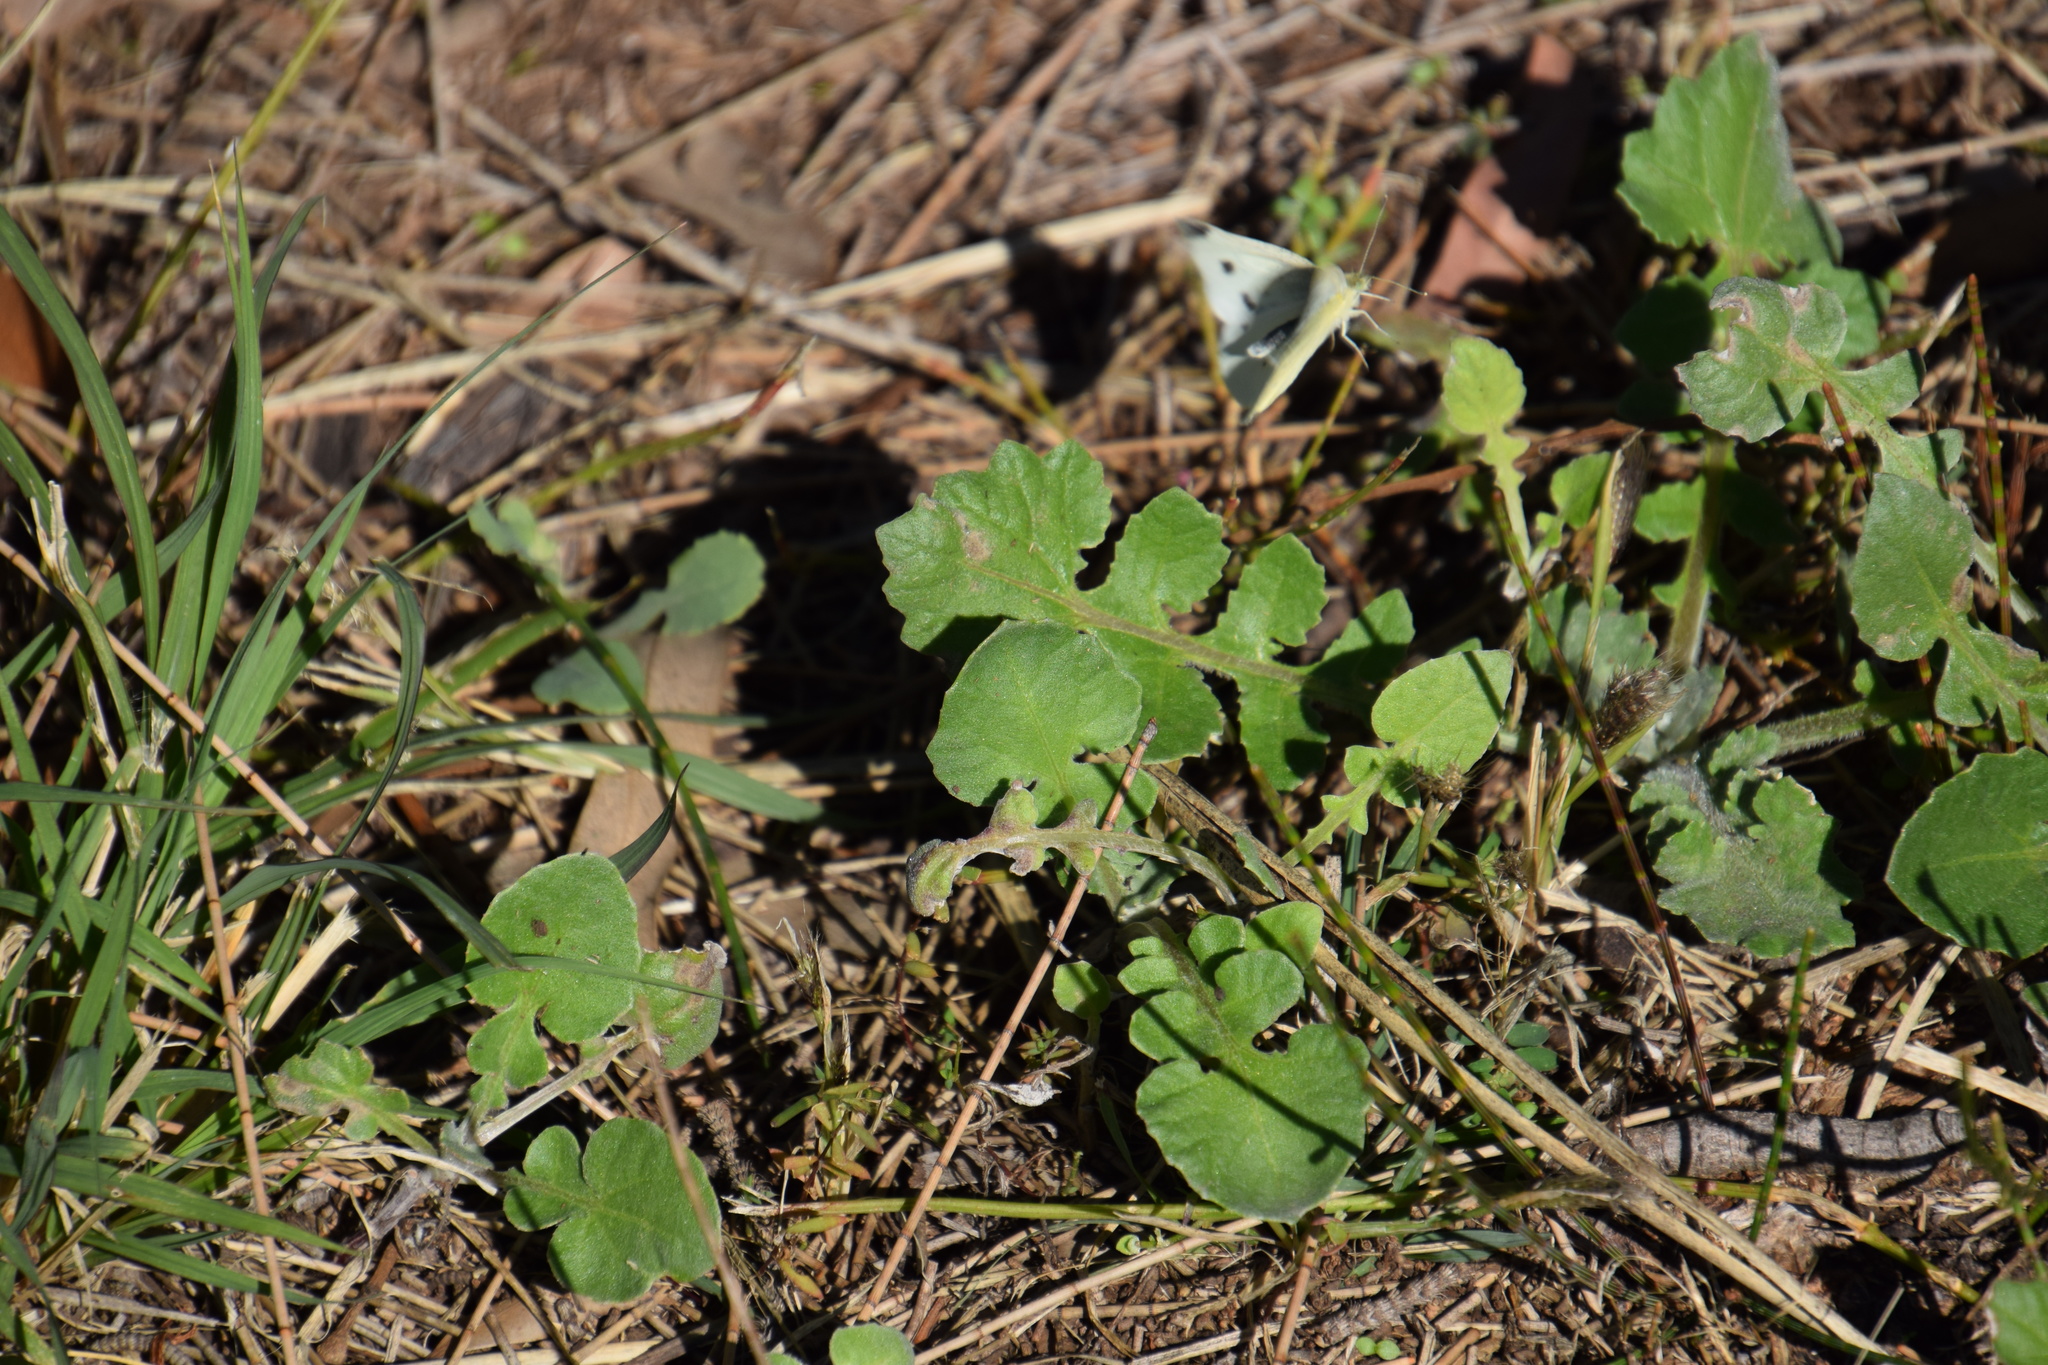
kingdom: Animalia
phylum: Arthropoda
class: Insecta
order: Lepidoptera
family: Pieridae
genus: Pieris
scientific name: Pieris rapae
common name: Small white
